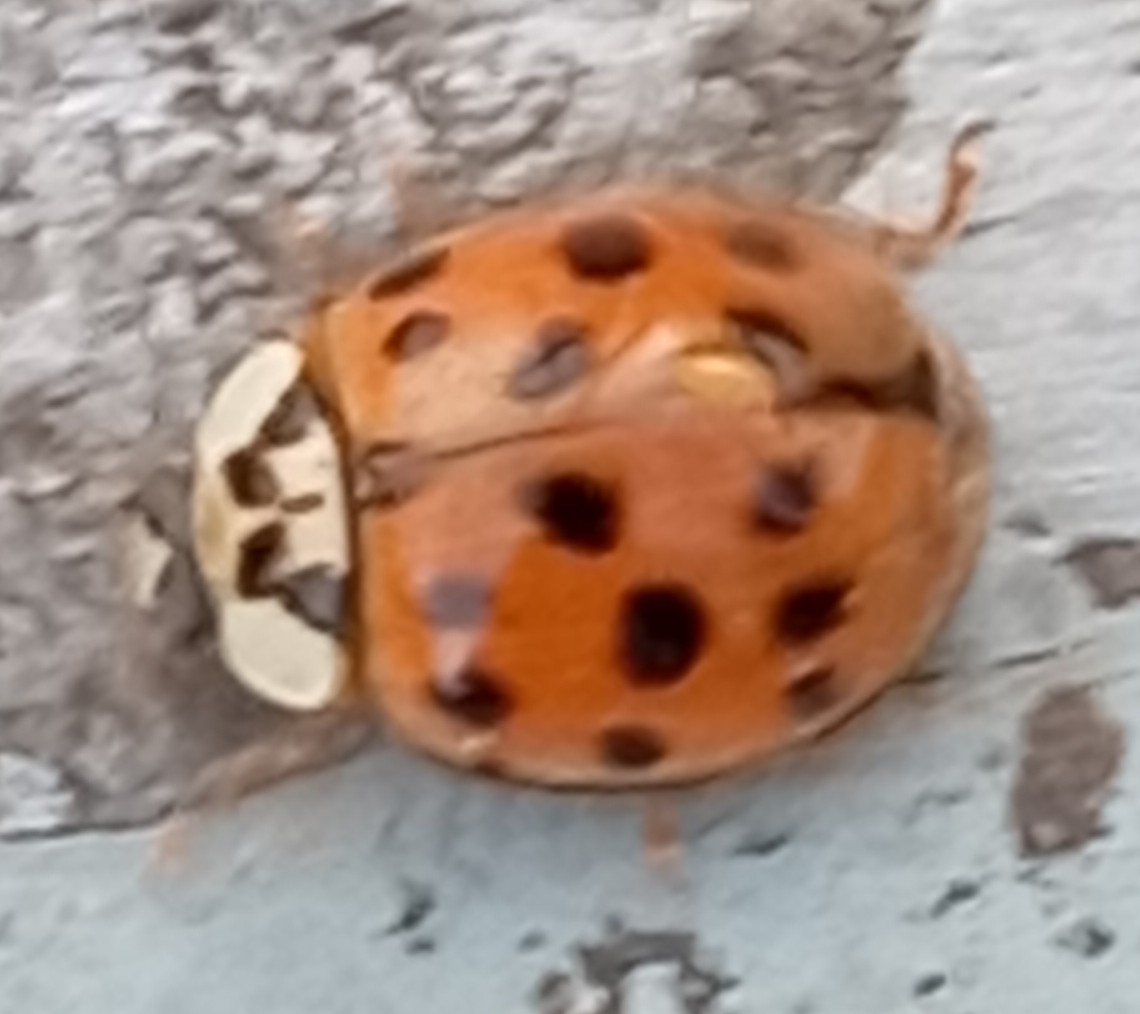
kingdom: Animalia
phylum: Arthropoda
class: Insecta
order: Coleoptera
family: Coccinellidae
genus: Harmonia
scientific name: Harmonia axyridis
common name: Harlequin ladybird
